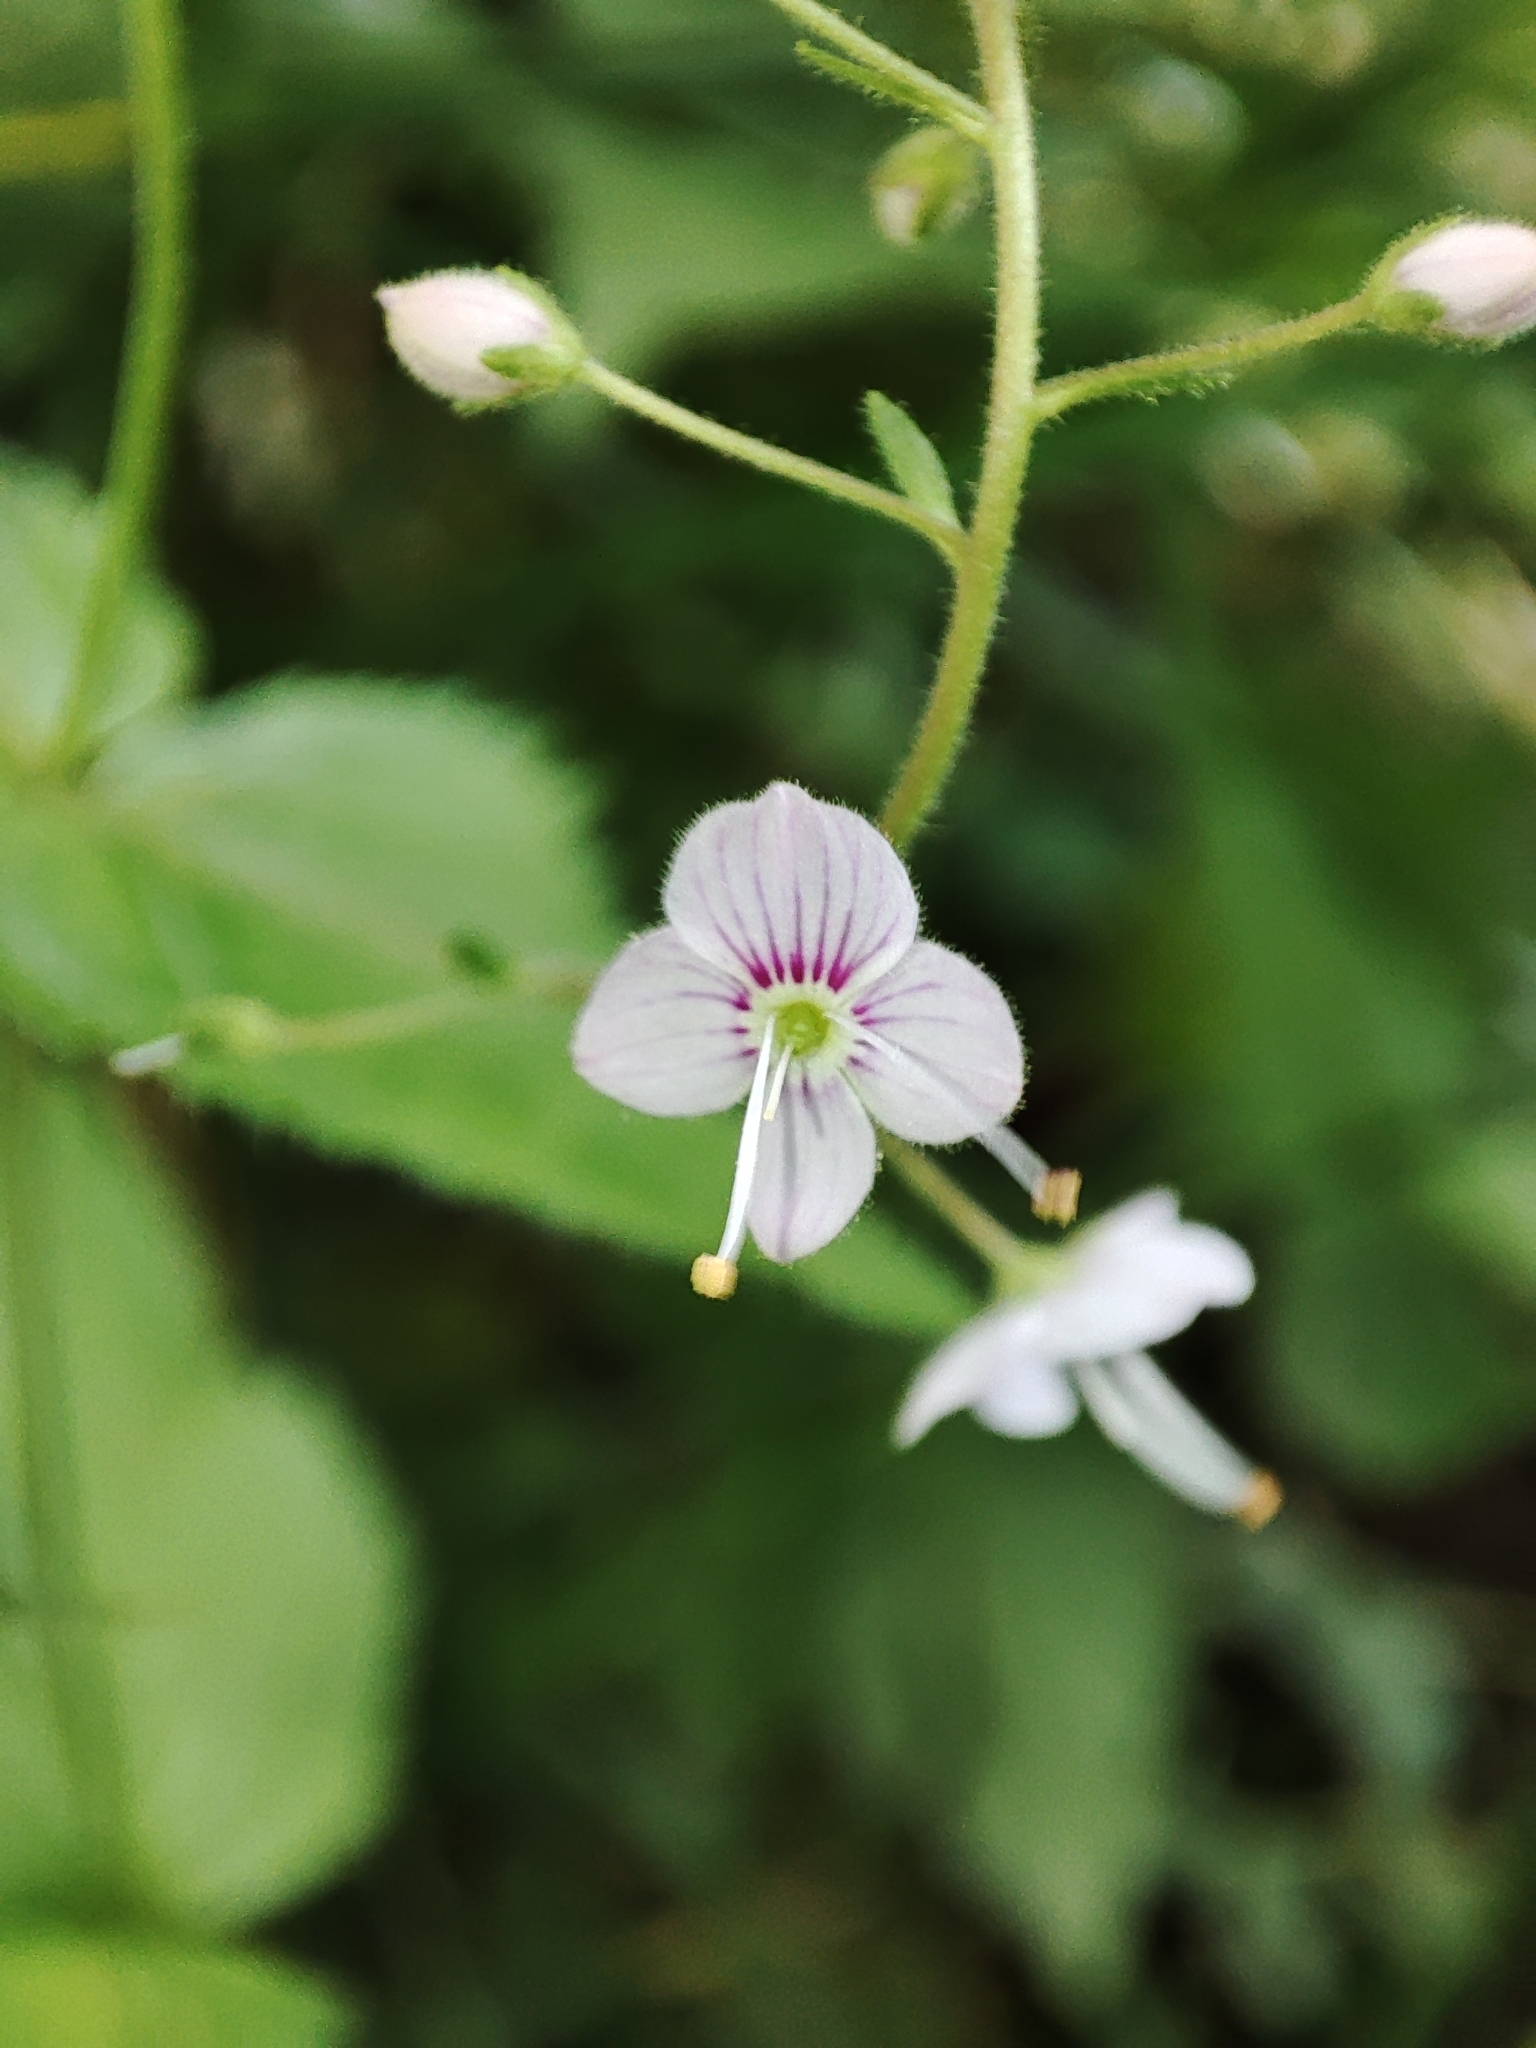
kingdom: Plantae
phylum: Tracheophyta
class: Magnoliopsida
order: Lamiales
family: Plantaginaceae
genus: Veronica
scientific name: Veronica urticifolia
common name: Nettle-leaf speedwell
